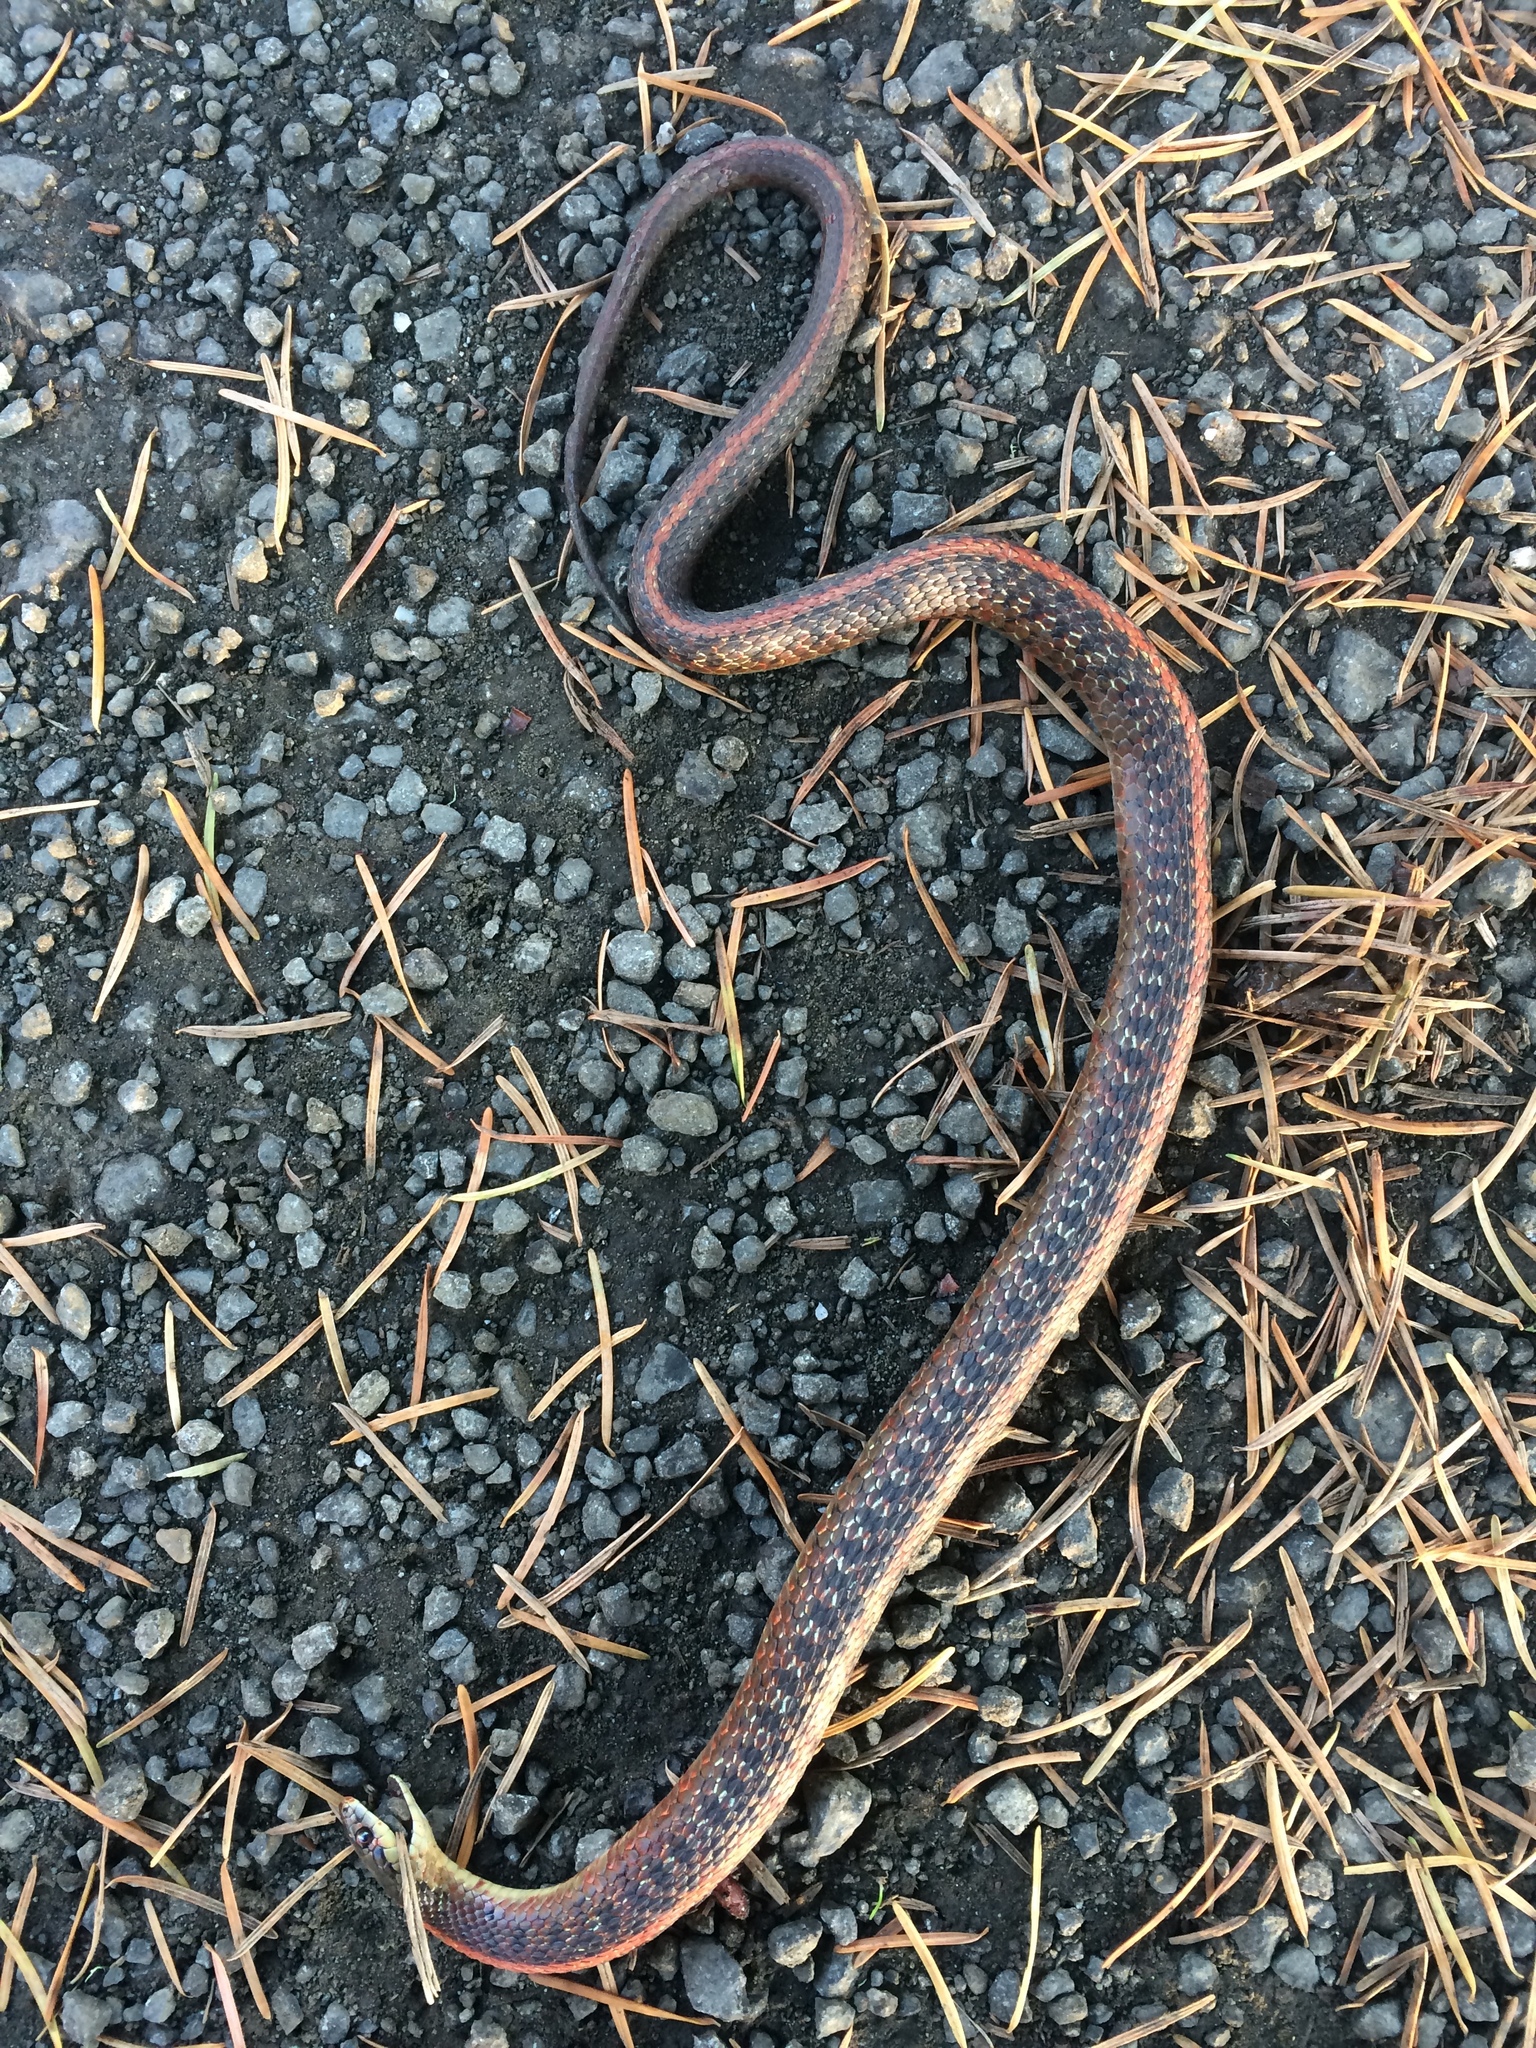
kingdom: Animalia
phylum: Chordata
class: Squamata
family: Colubridae
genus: Thamnophis
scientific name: Thamnophis ordinoides
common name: Northwestern garter snake
